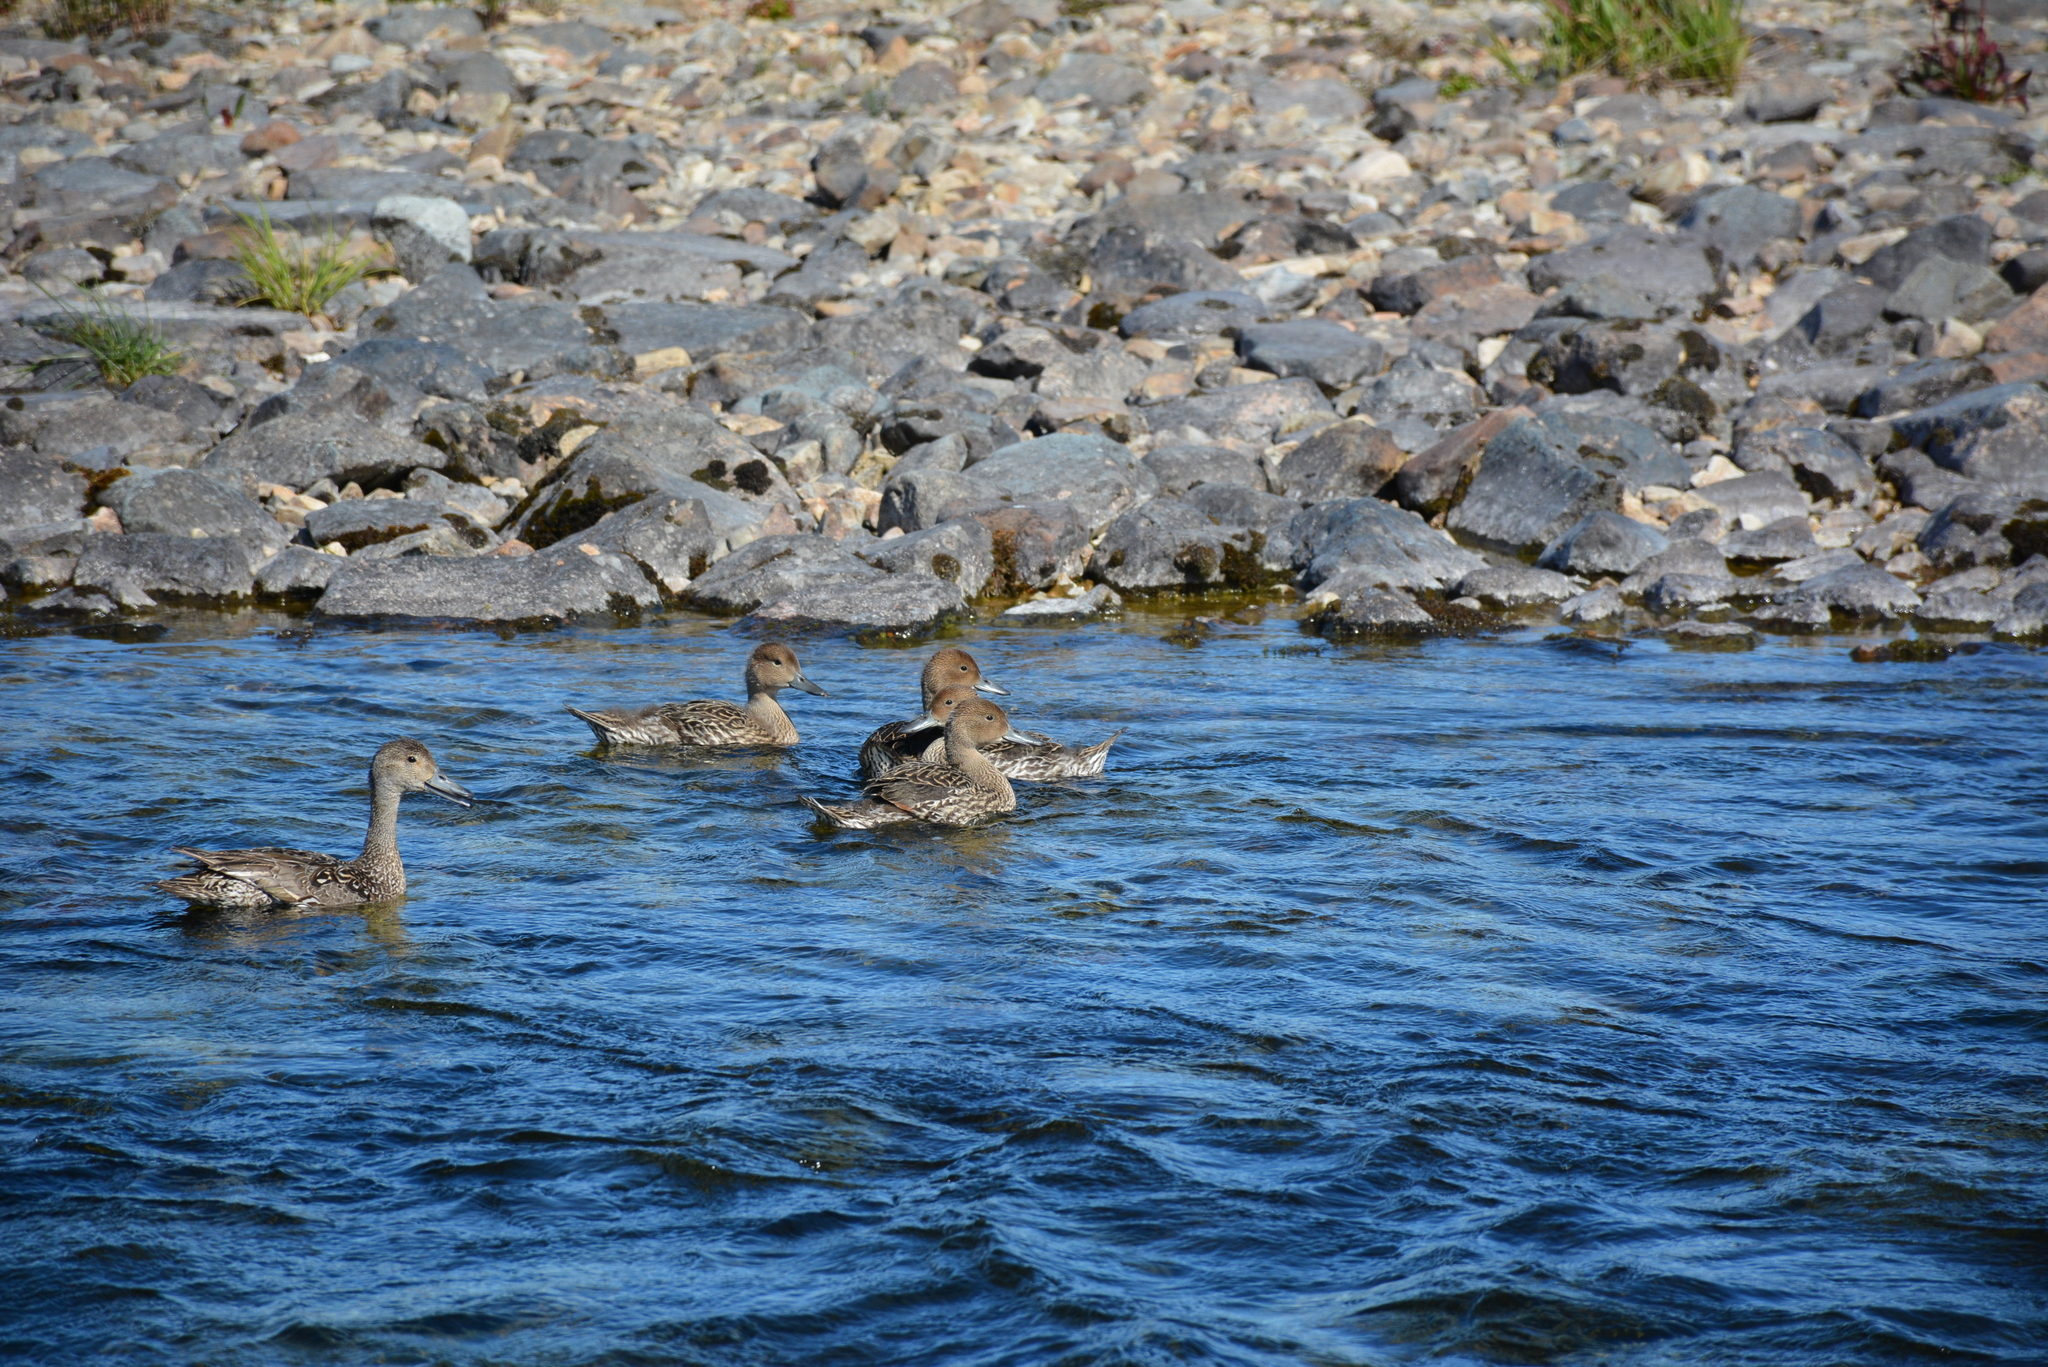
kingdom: Animalia
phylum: Chordata
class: Aves
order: Anseriformes
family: Anatidae
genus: Anas
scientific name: Anas acuta
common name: Northern pintail
